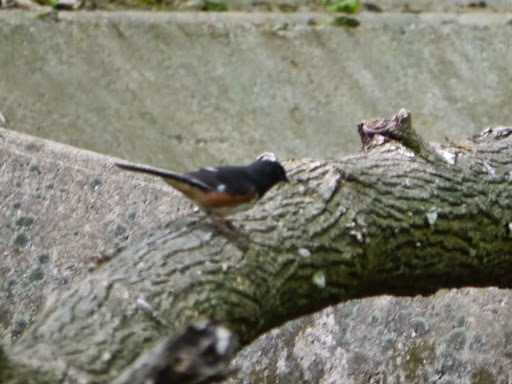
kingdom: Animalia
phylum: Chordata
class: Aves
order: Passeriformes
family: Passerellidae
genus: Pipilo
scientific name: Pipilo erythrophthalmus
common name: Eastern towhee
